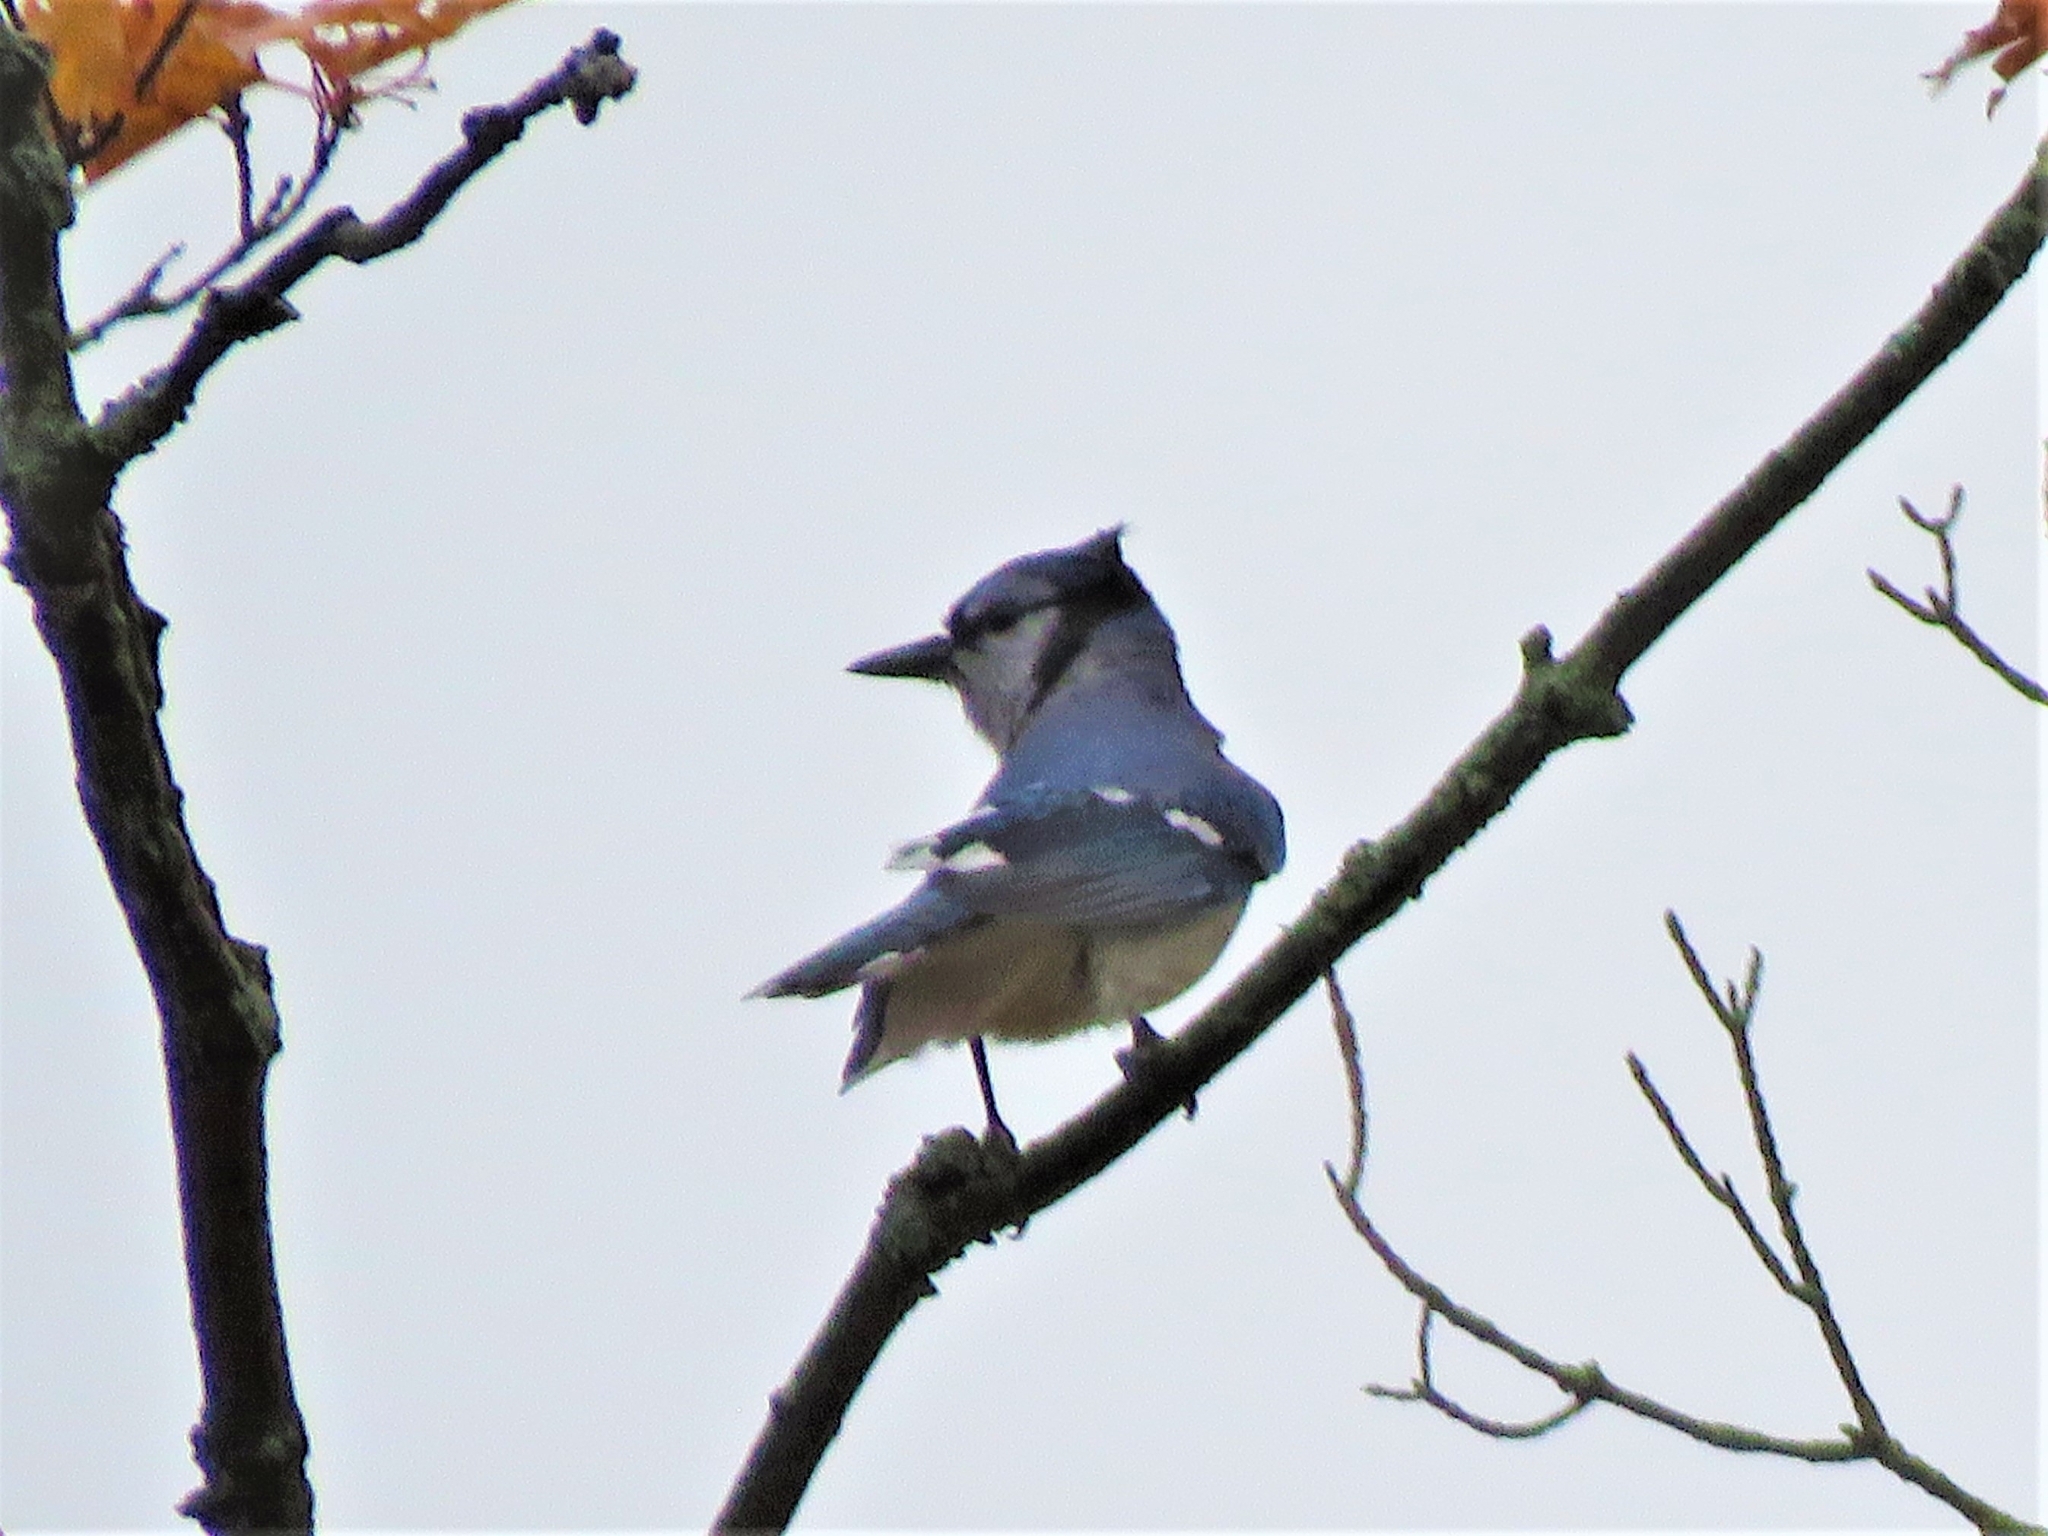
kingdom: Animalia
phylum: Chordata
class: Aves
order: Passeriformes
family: Corvidae
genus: Cyanocitta
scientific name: Cyanocitta cristata
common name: Blue jay
